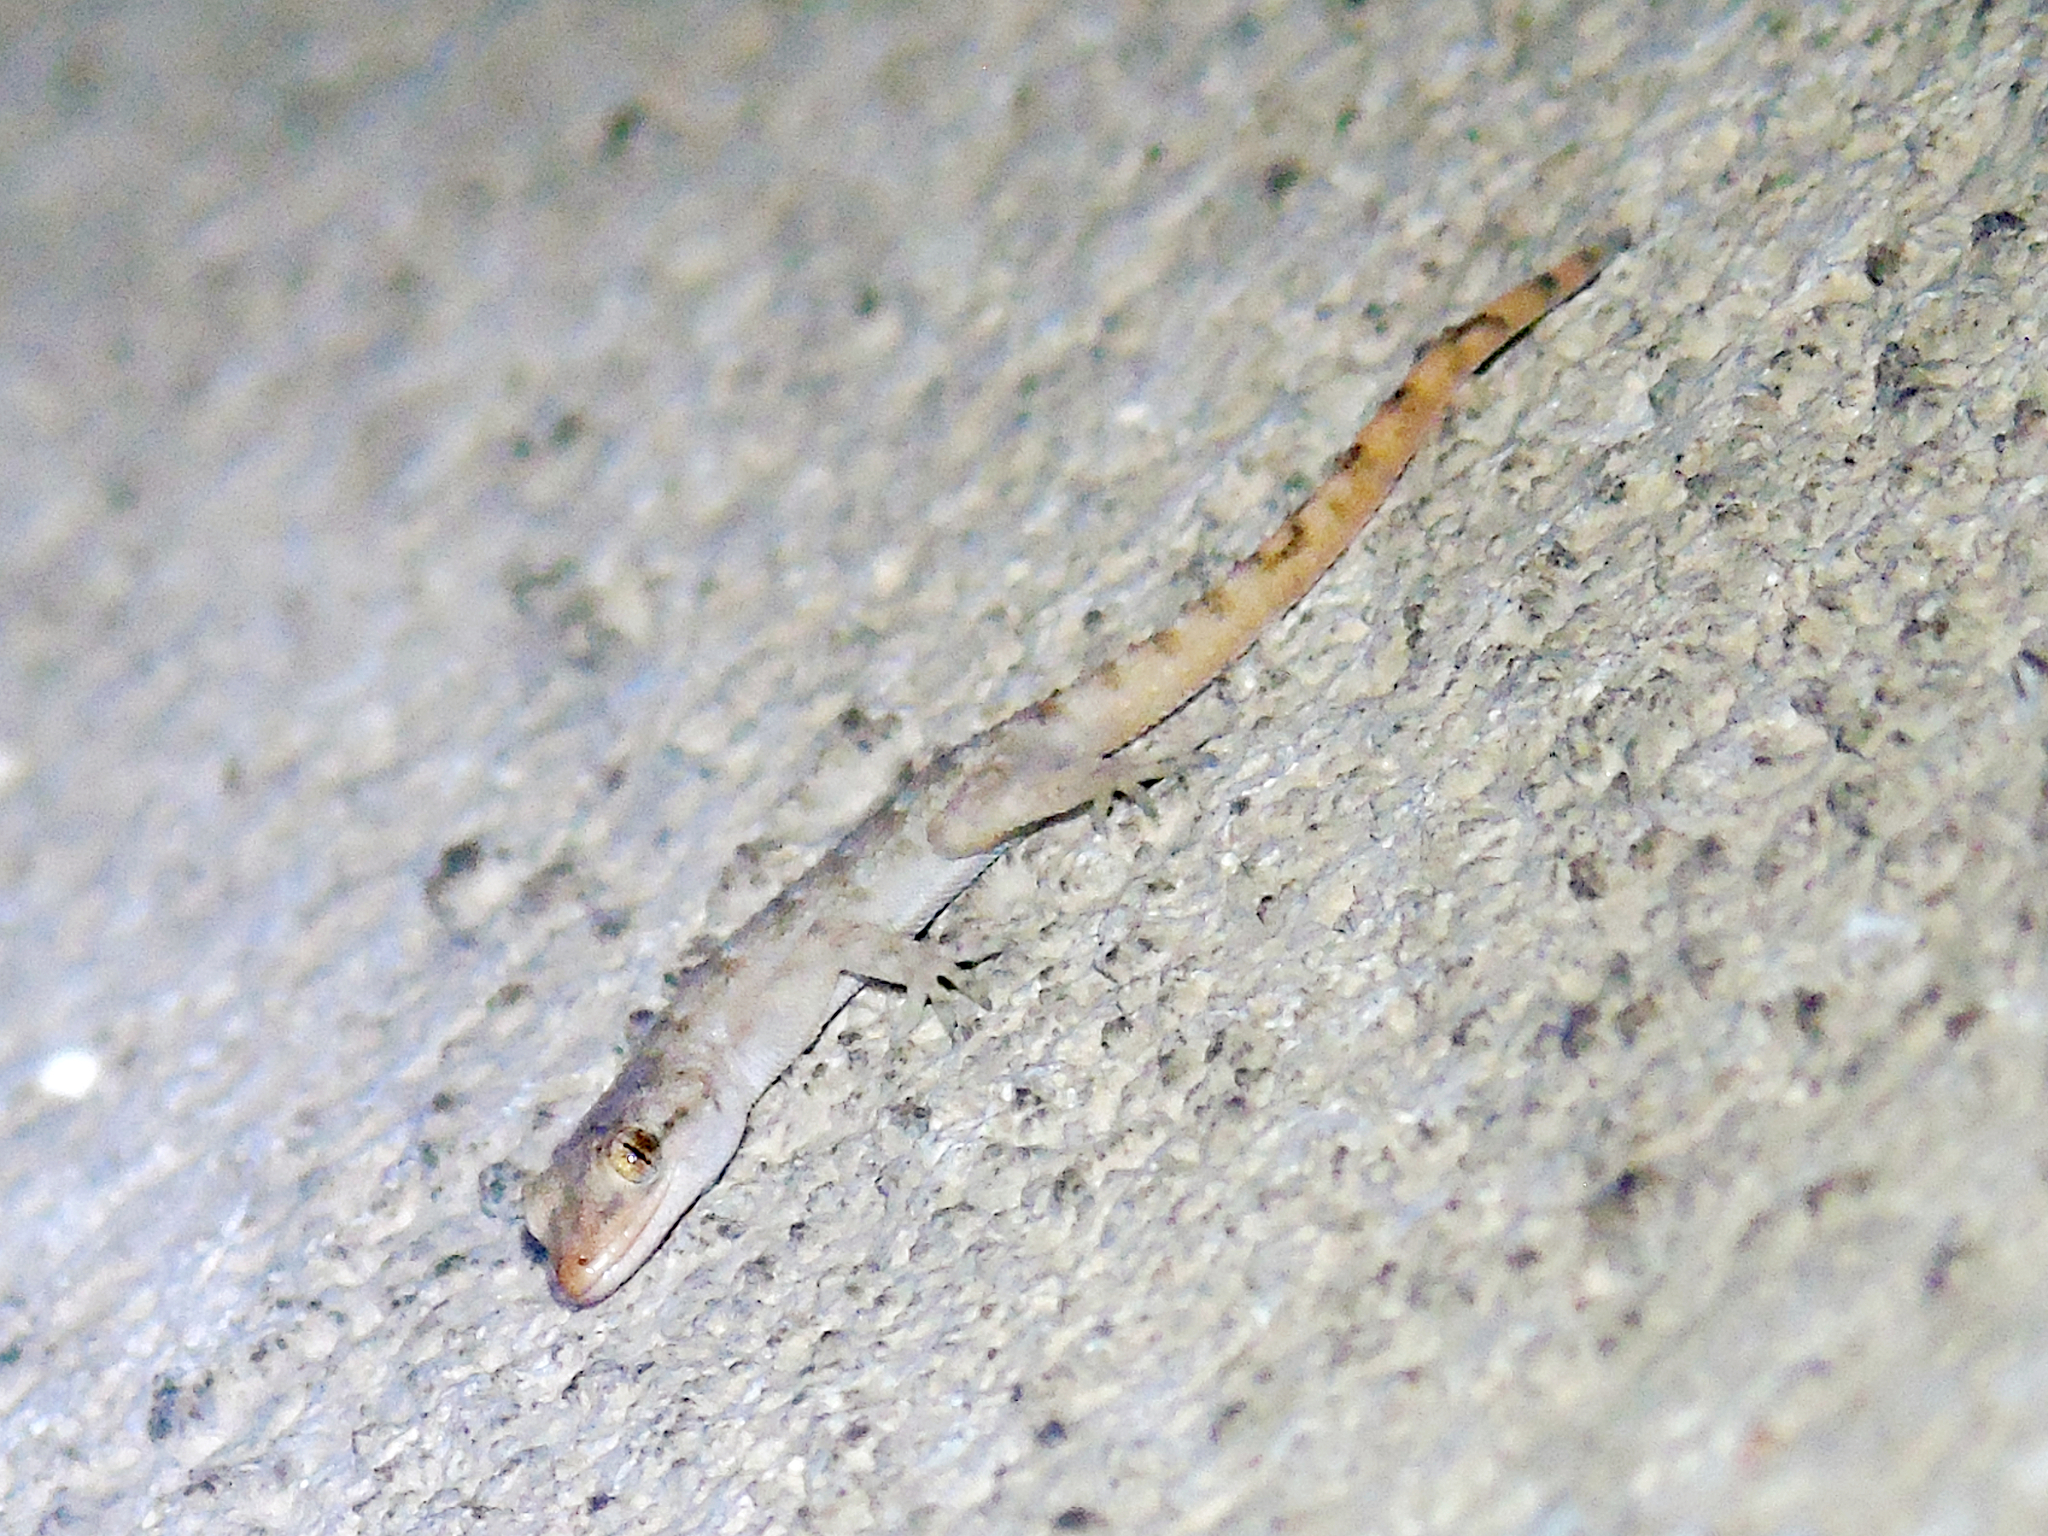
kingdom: Animalia
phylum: Chordata
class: Squamata
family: Gekkonidae
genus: Mediodactylus
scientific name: Mediodactylus kotschyi
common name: Kotschy's gecko
